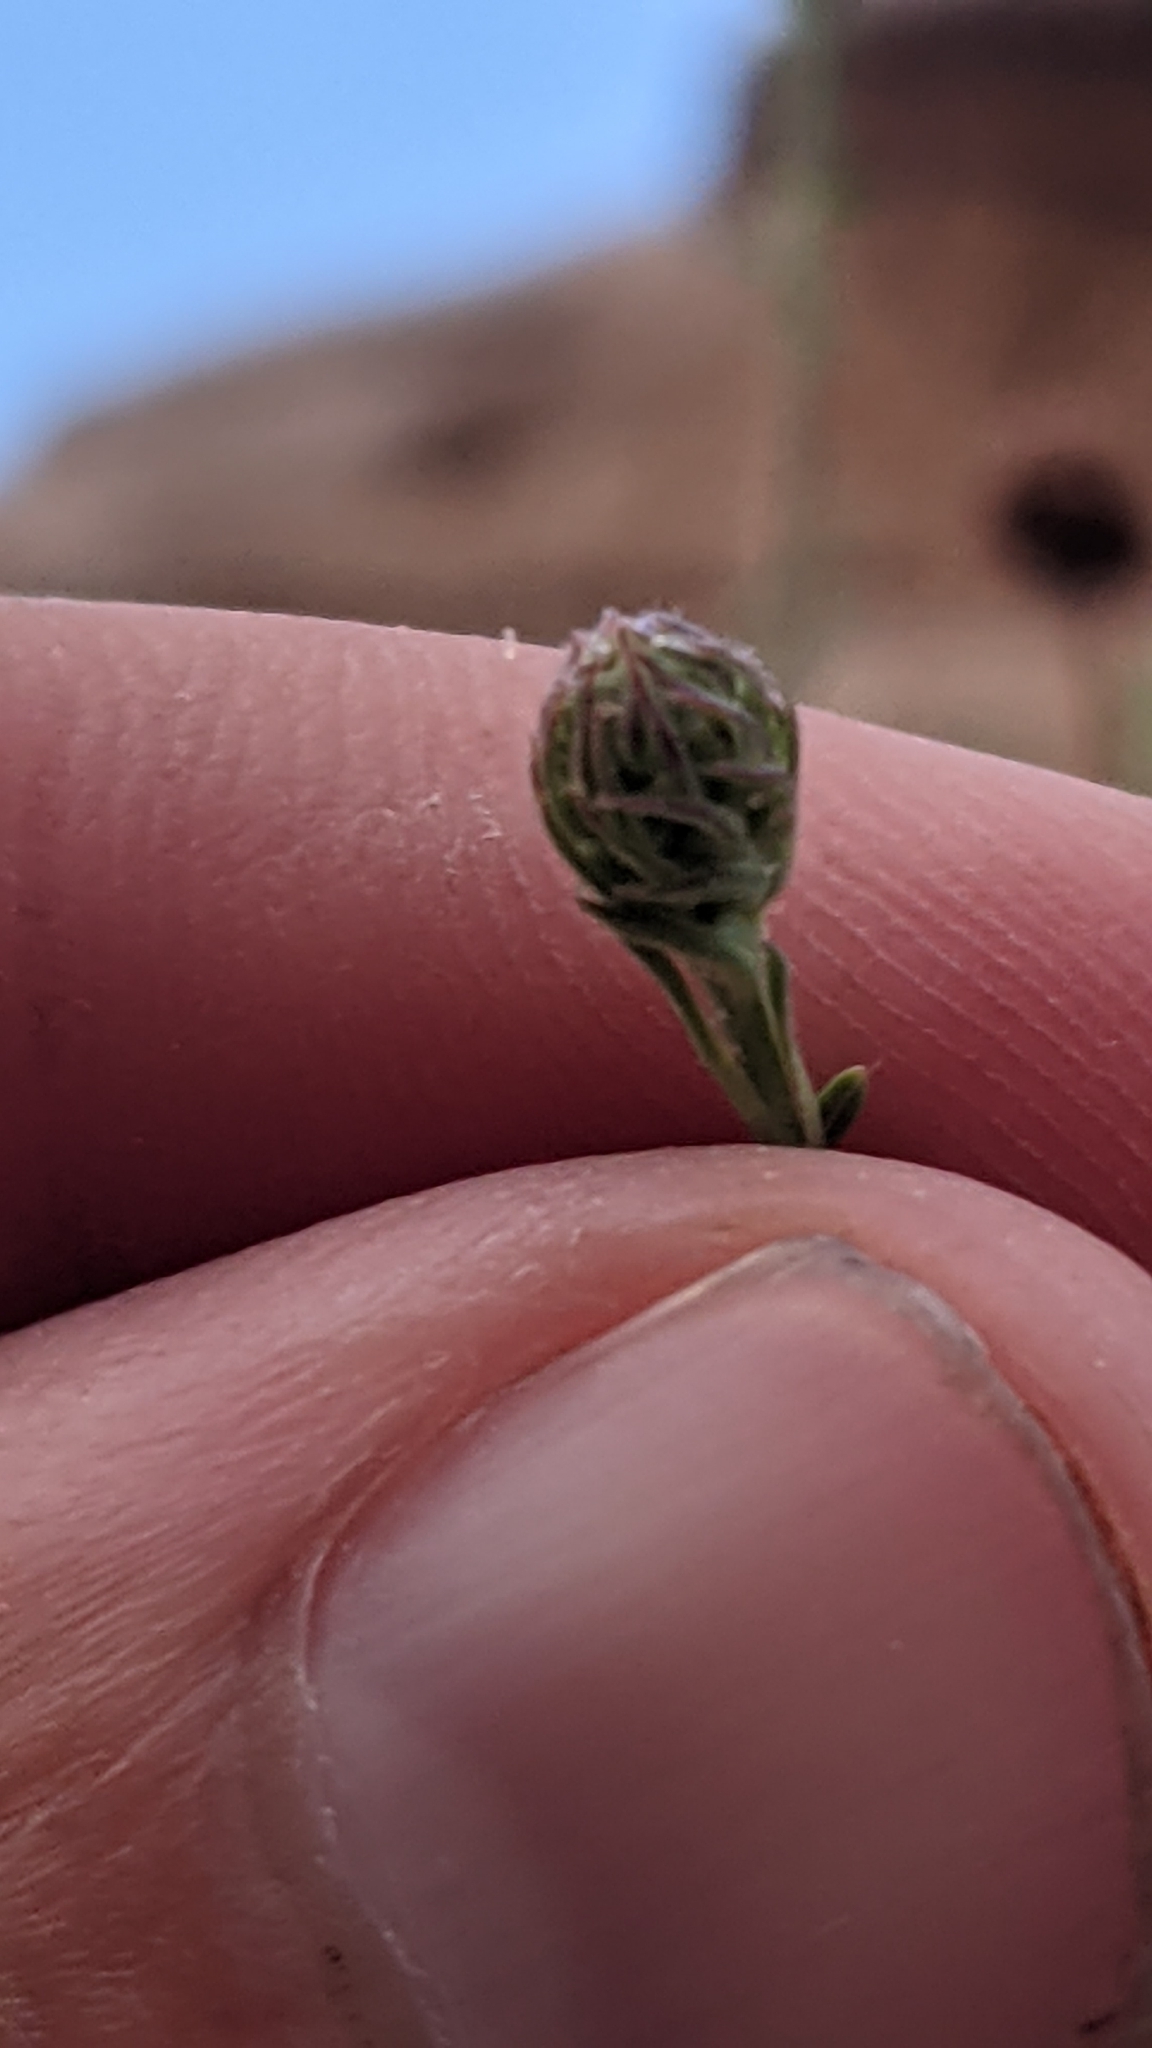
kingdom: Plantae
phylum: Tracheophyta
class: Magnoliopsida
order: Rosales
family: Rosaceae
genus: Petrophytum
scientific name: Petrophytum caespitosum
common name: Mat rockspirea
